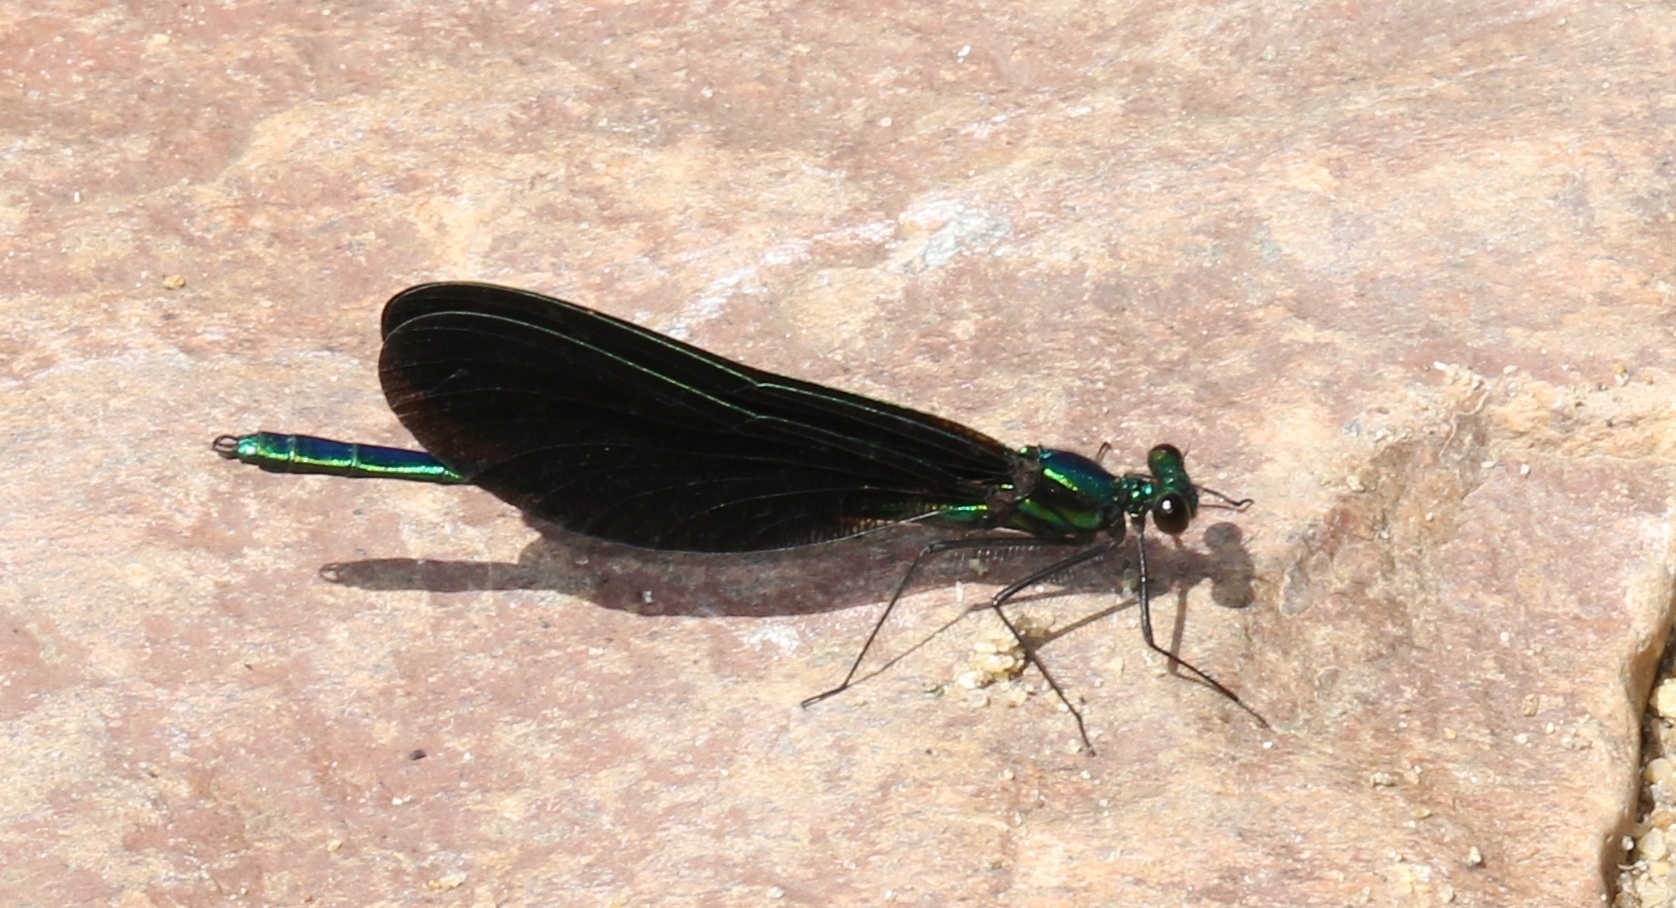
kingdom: Animalia
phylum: Arthropoda
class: Insecta
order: Odonata
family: Calopterygidae
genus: Calopteryx
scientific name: Calopteryx maculata
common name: Ebony jewelwing
